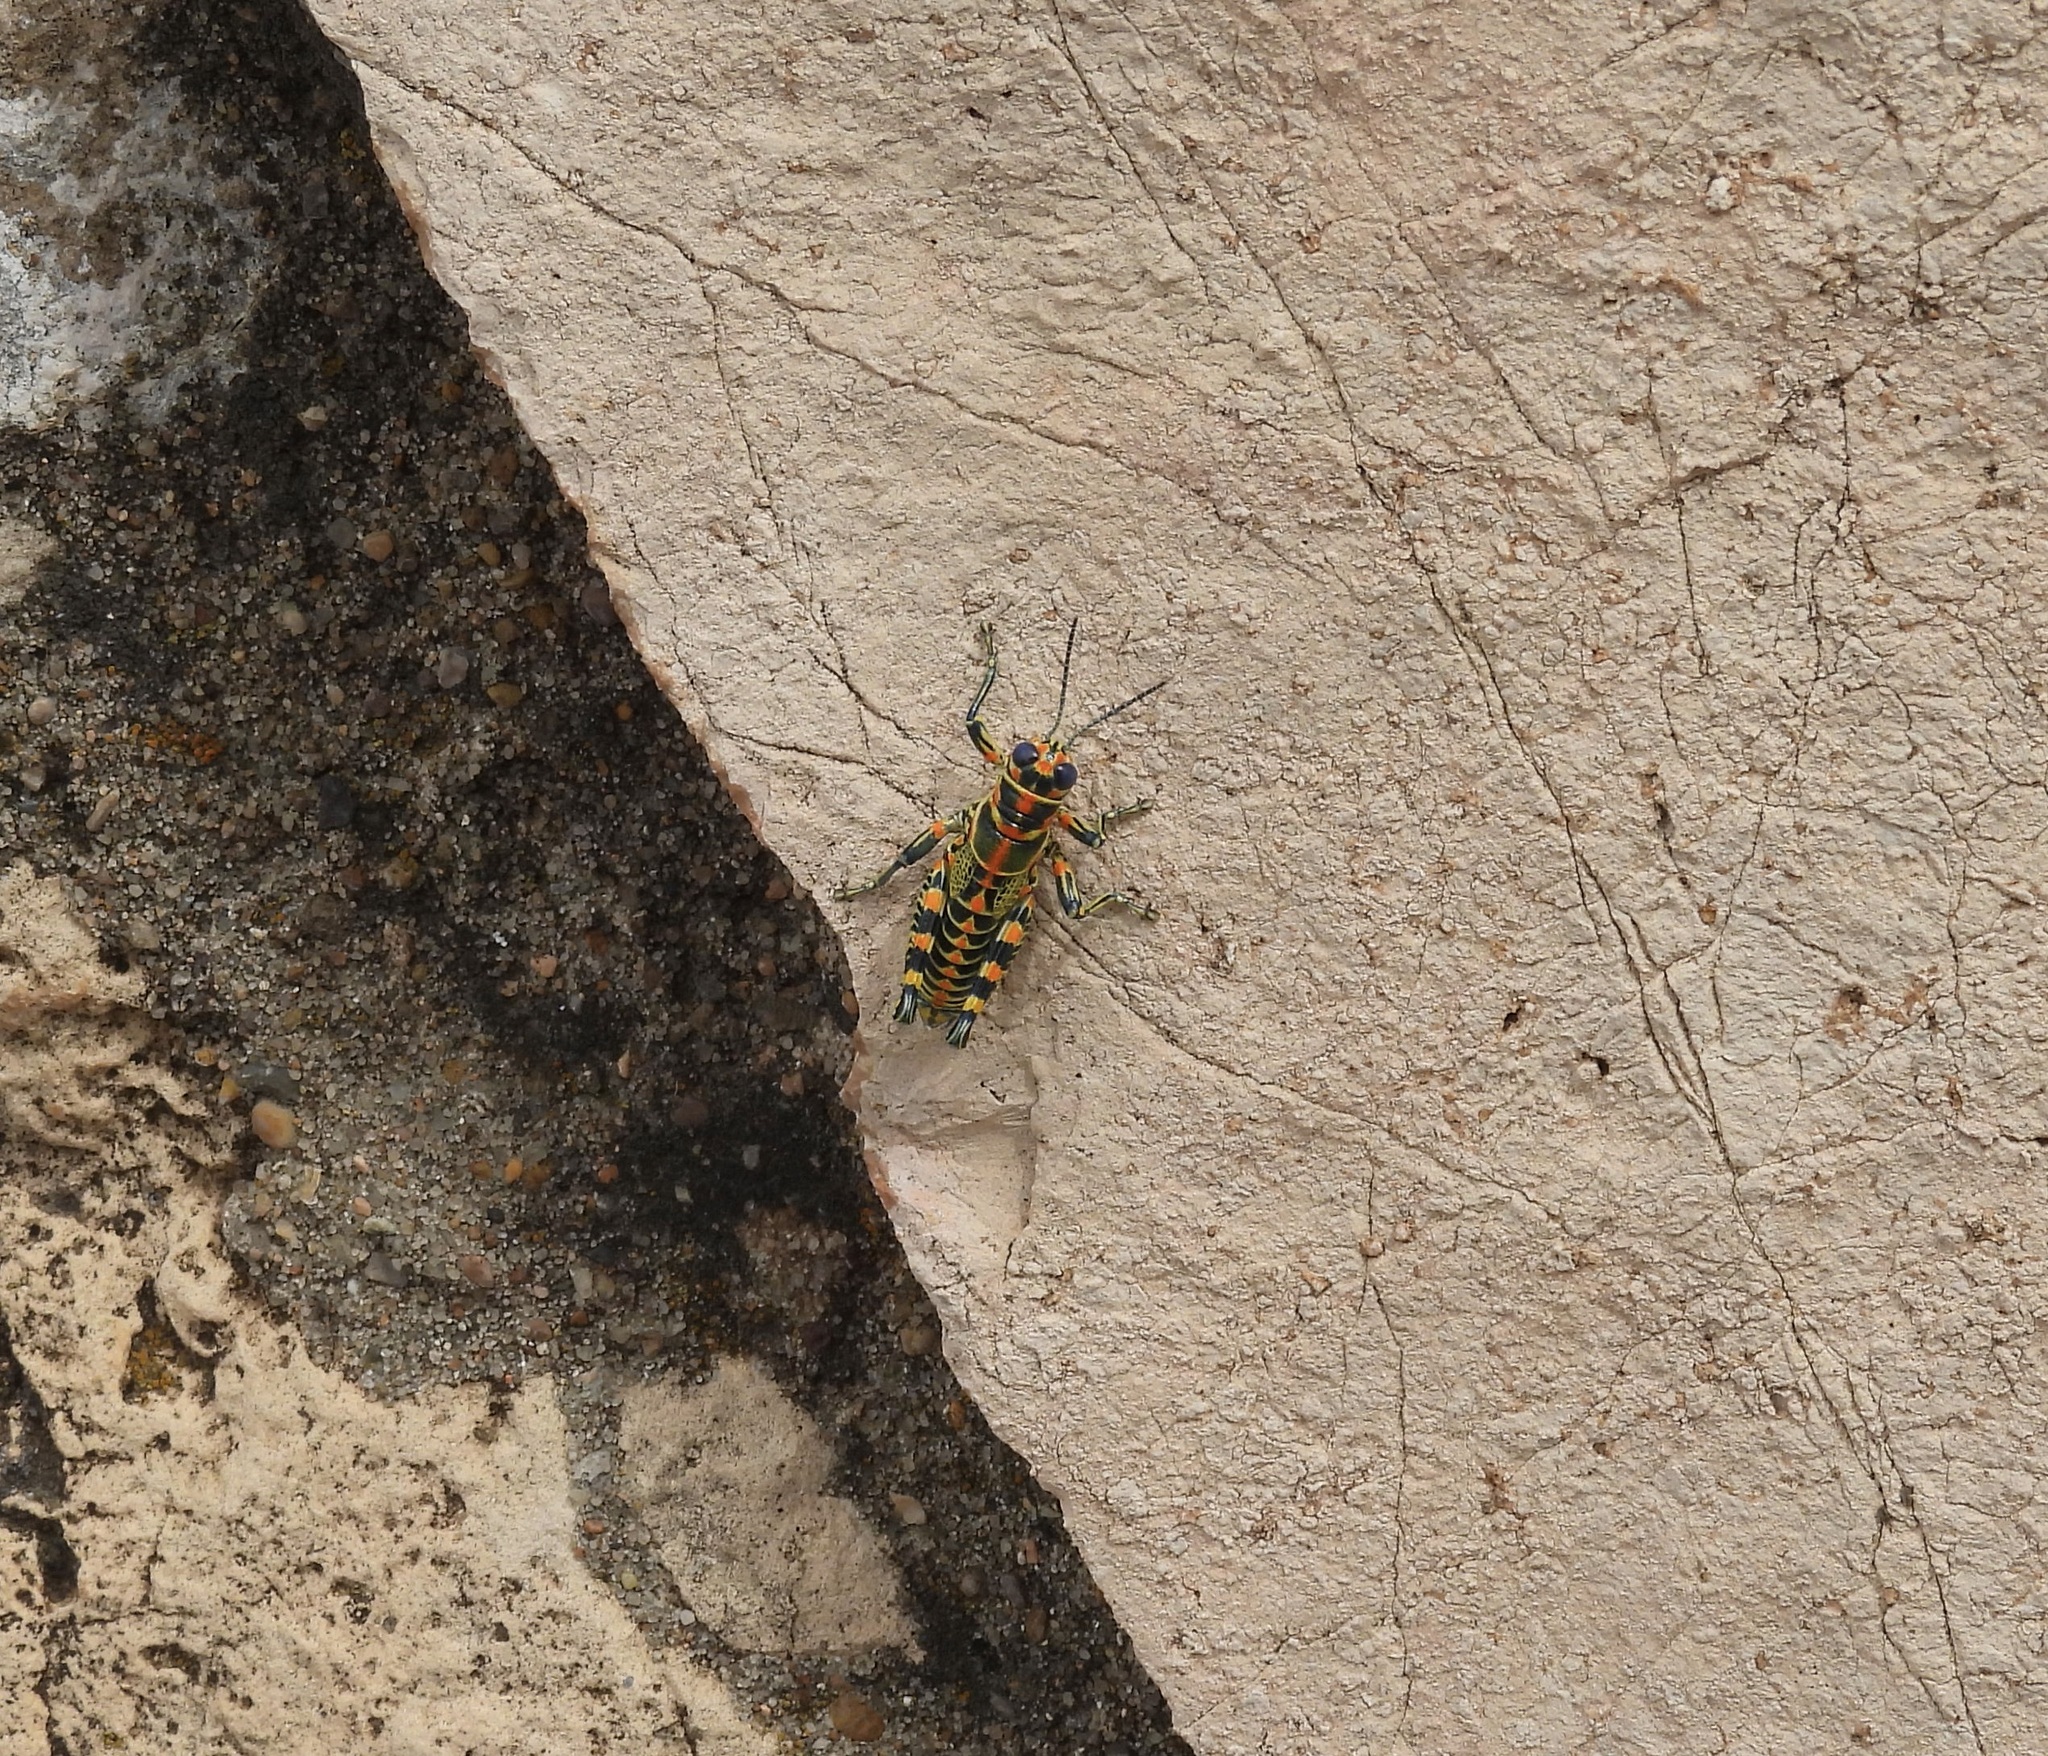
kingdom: Animalia
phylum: Arthropoda
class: Insecta
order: Orthoptera
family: Acrididae
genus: Dactylotum
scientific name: Dactylotum bicolor
